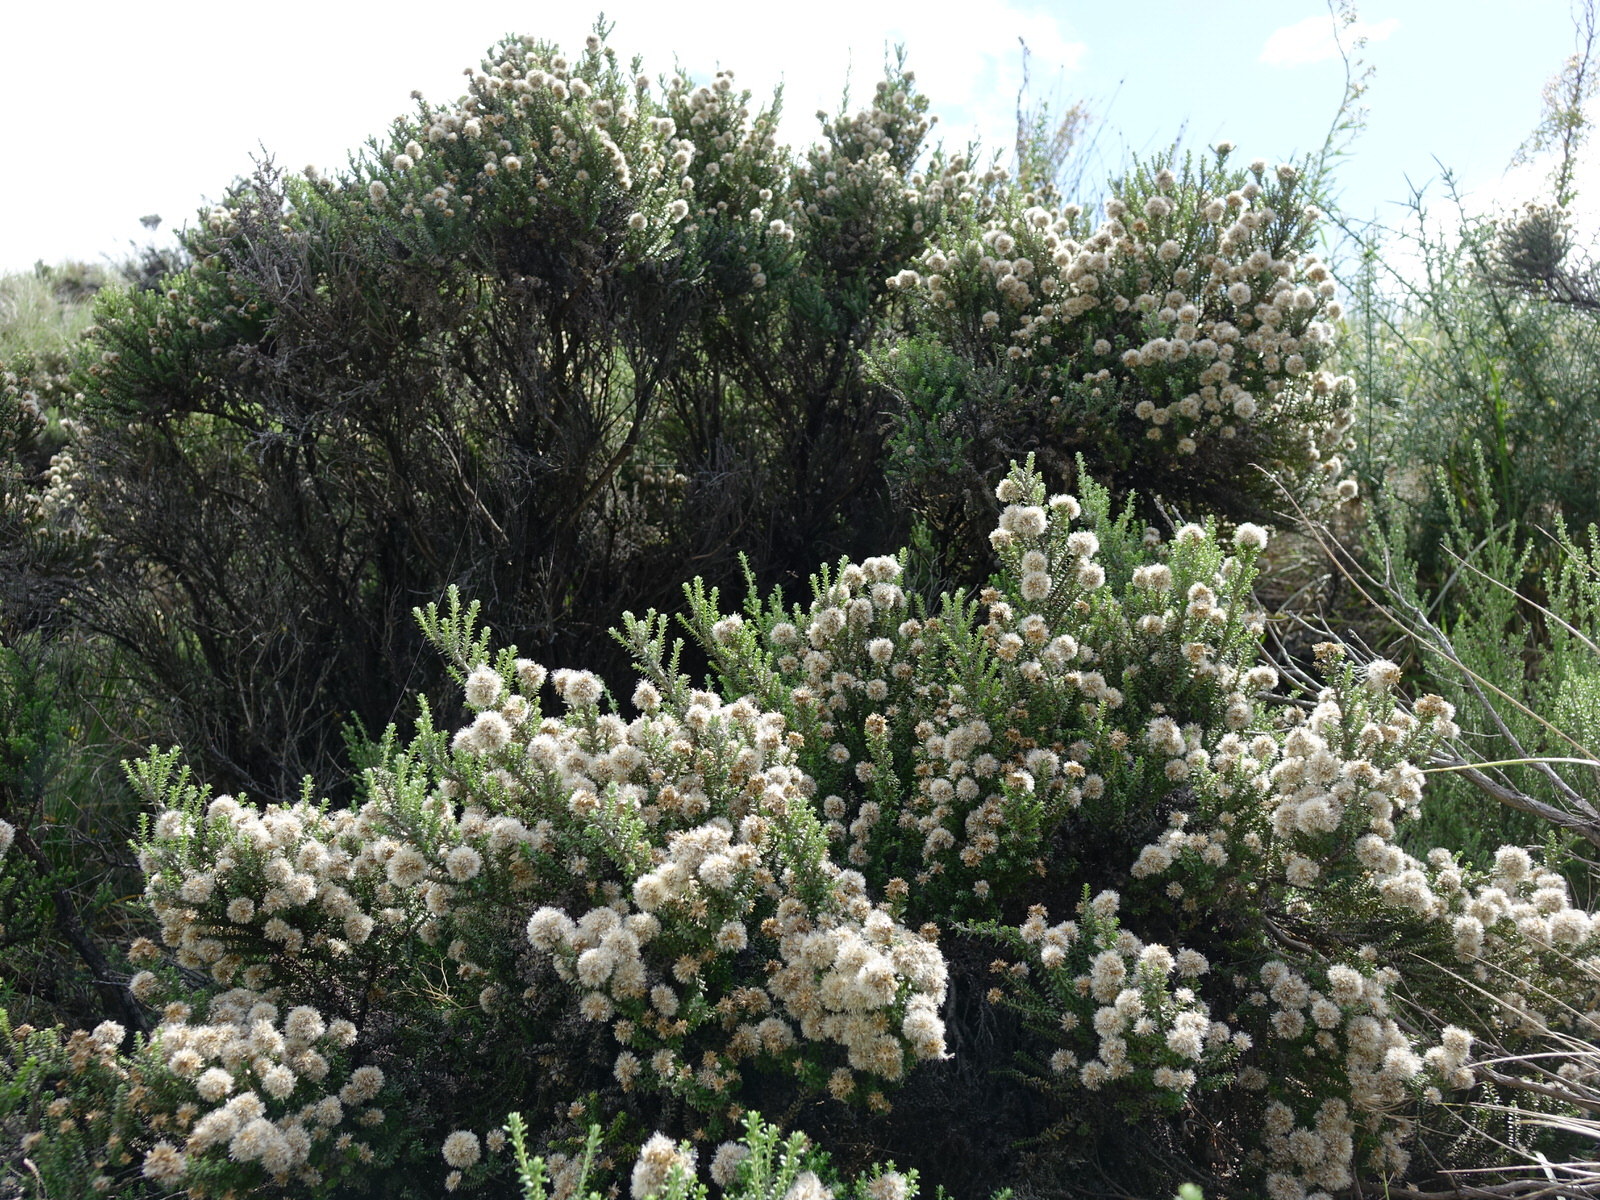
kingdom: Plantae
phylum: Tracheophyta
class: Magnoliopsida
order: Asterales
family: Asteraceae
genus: Ozothamnus
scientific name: Ozothamnus leptophyllus
